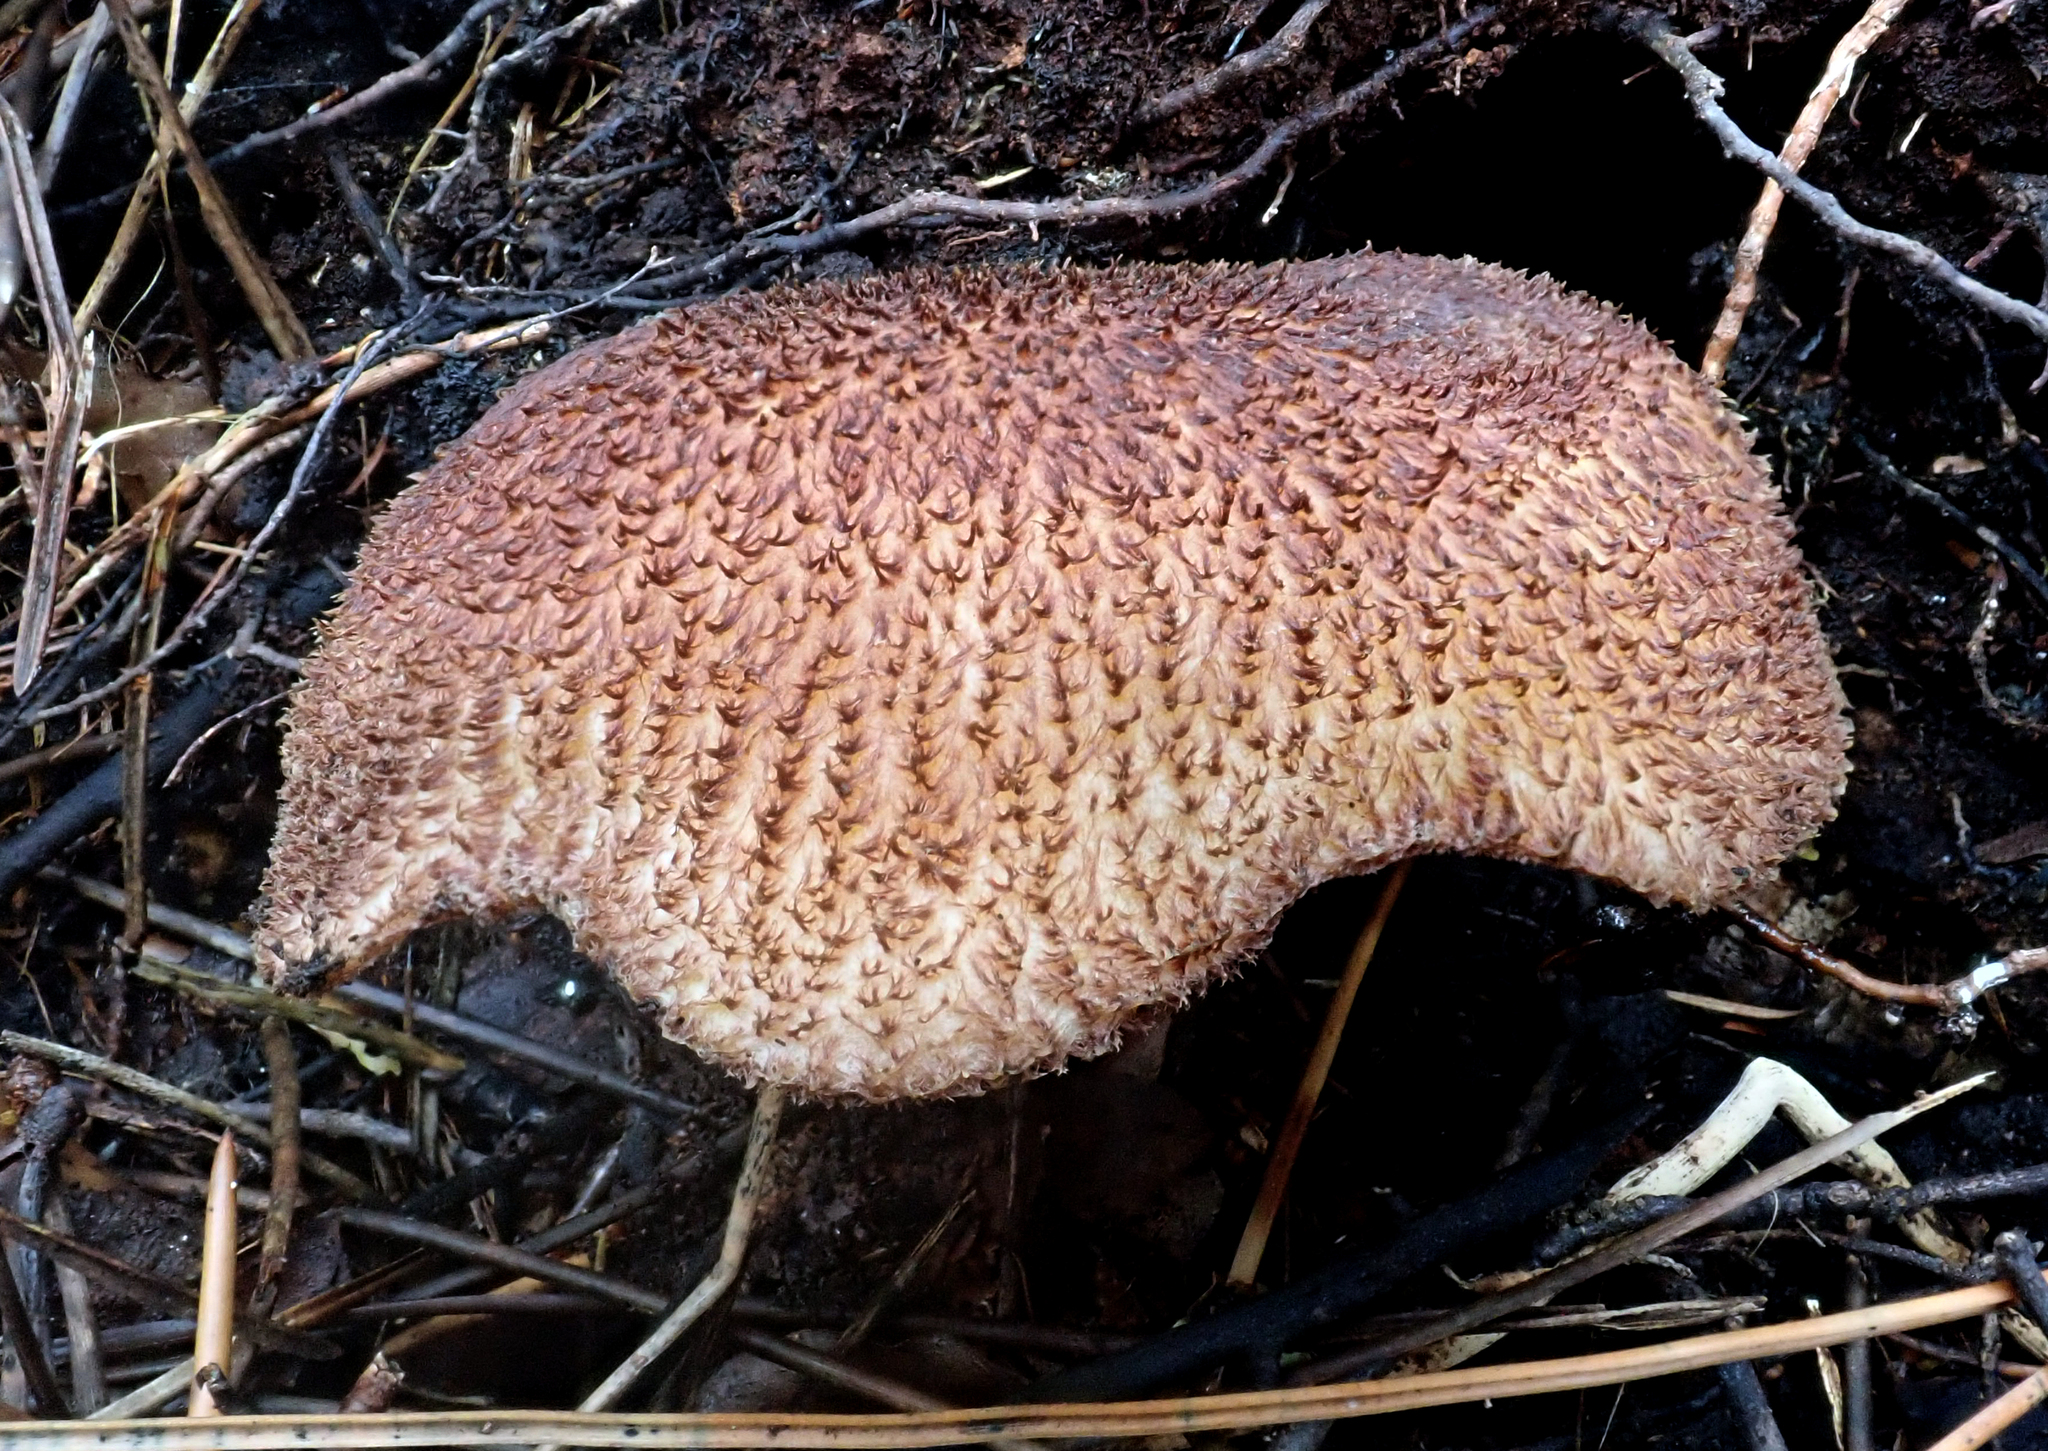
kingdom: Fungi
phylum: Basidiomycota
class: Agaricomycetes
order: Agaricales
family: Tricholomataceae
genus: Tricholomopsis
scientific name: Tricholomopsis scabra
